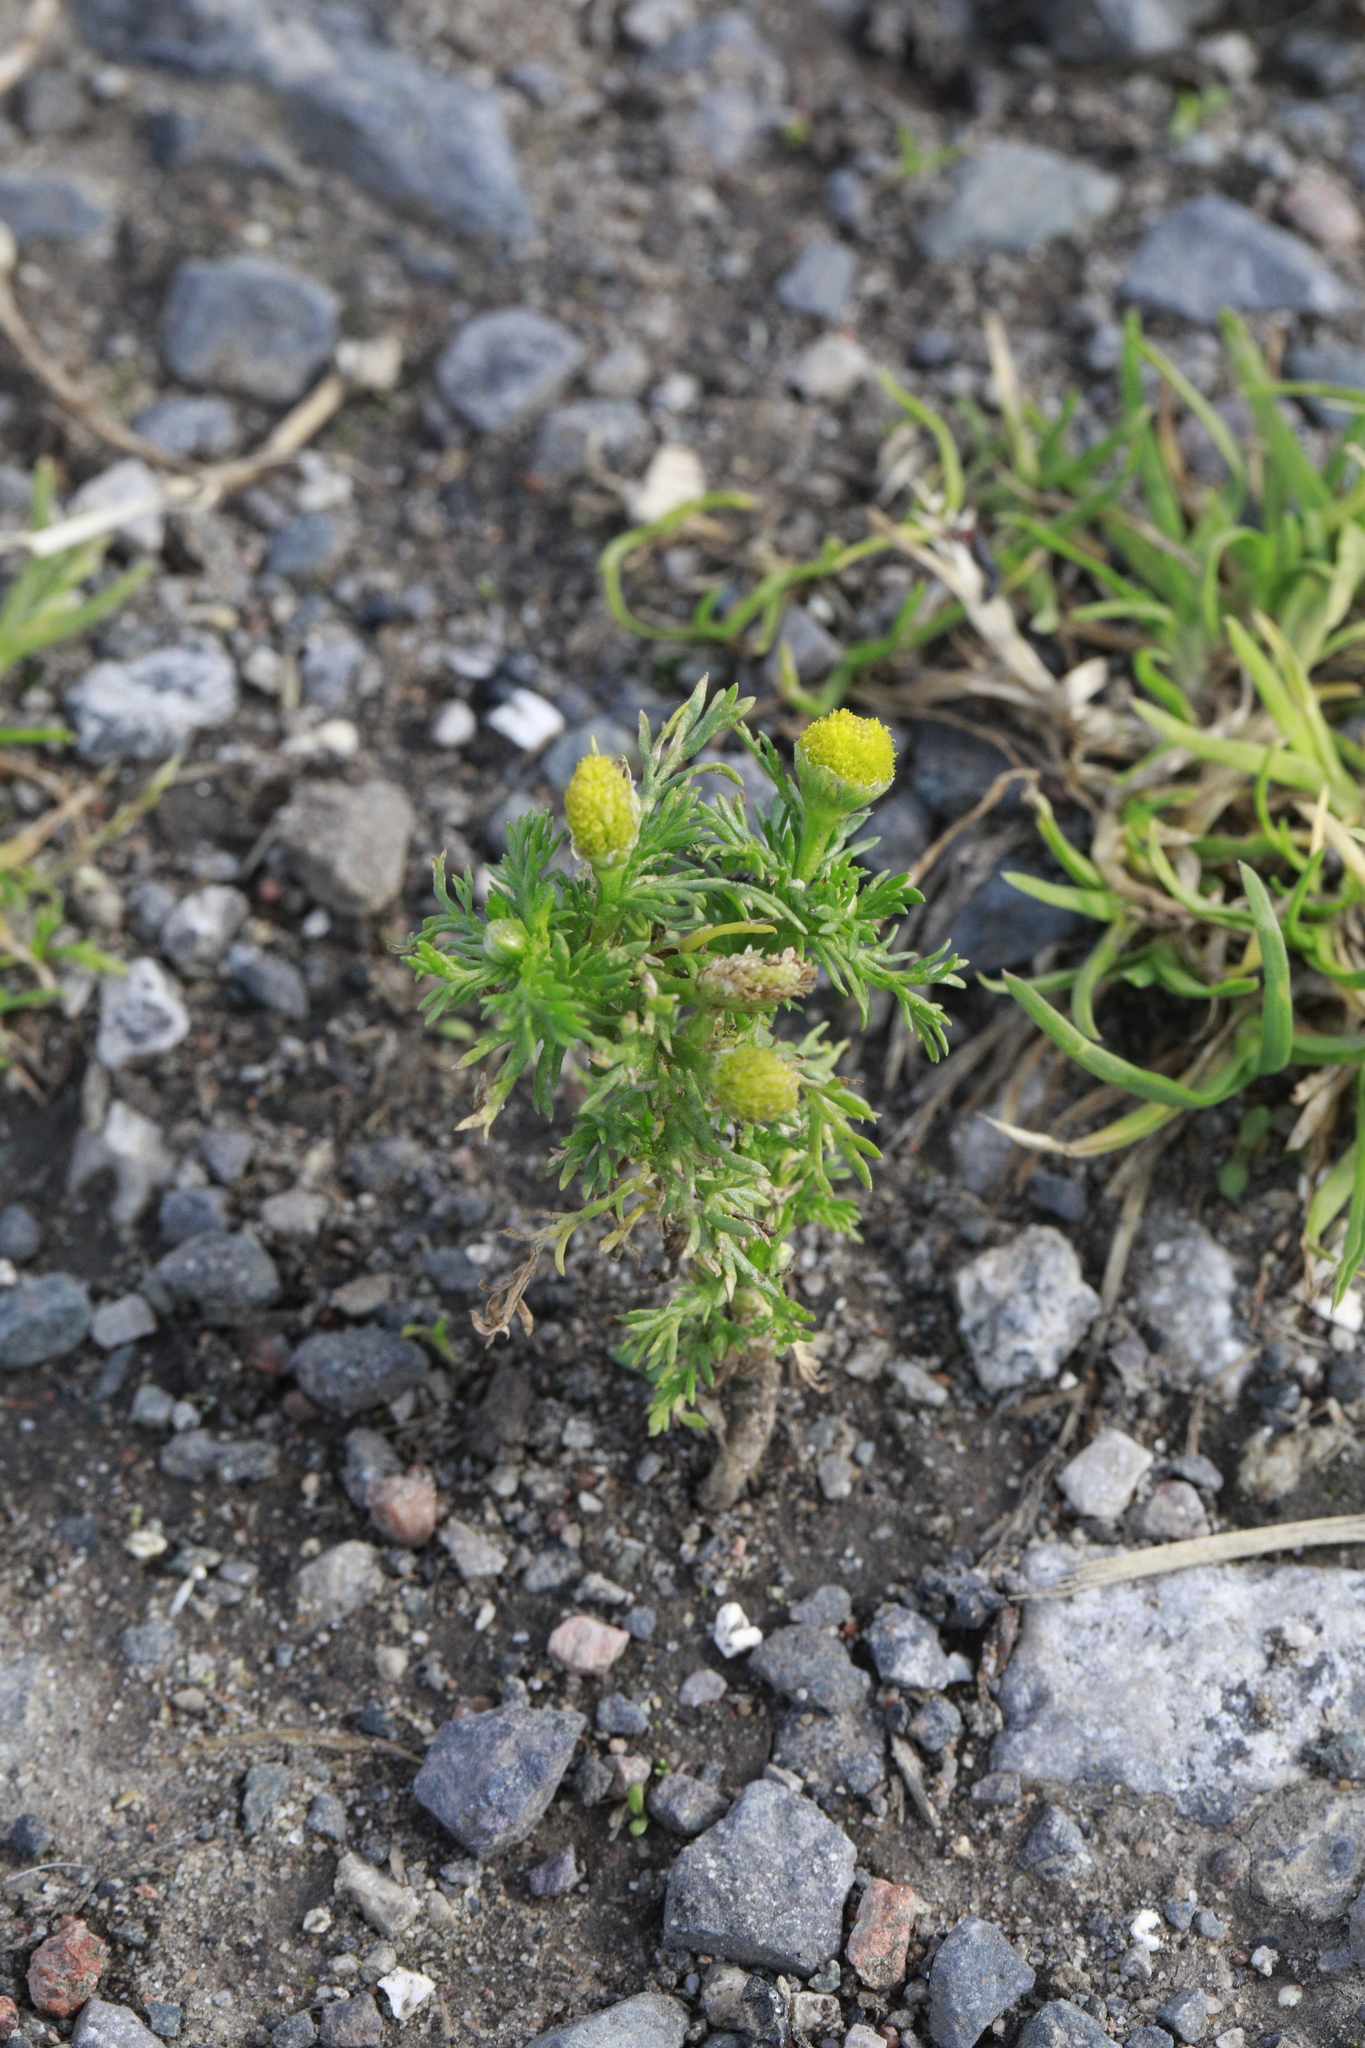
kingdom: Plantae
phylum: Tracheophyta
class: Magnoliopsida
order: Asterales
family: Asteraceae
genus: Matricaria
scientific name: Matricaria discoidea
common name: Disc mayweed
